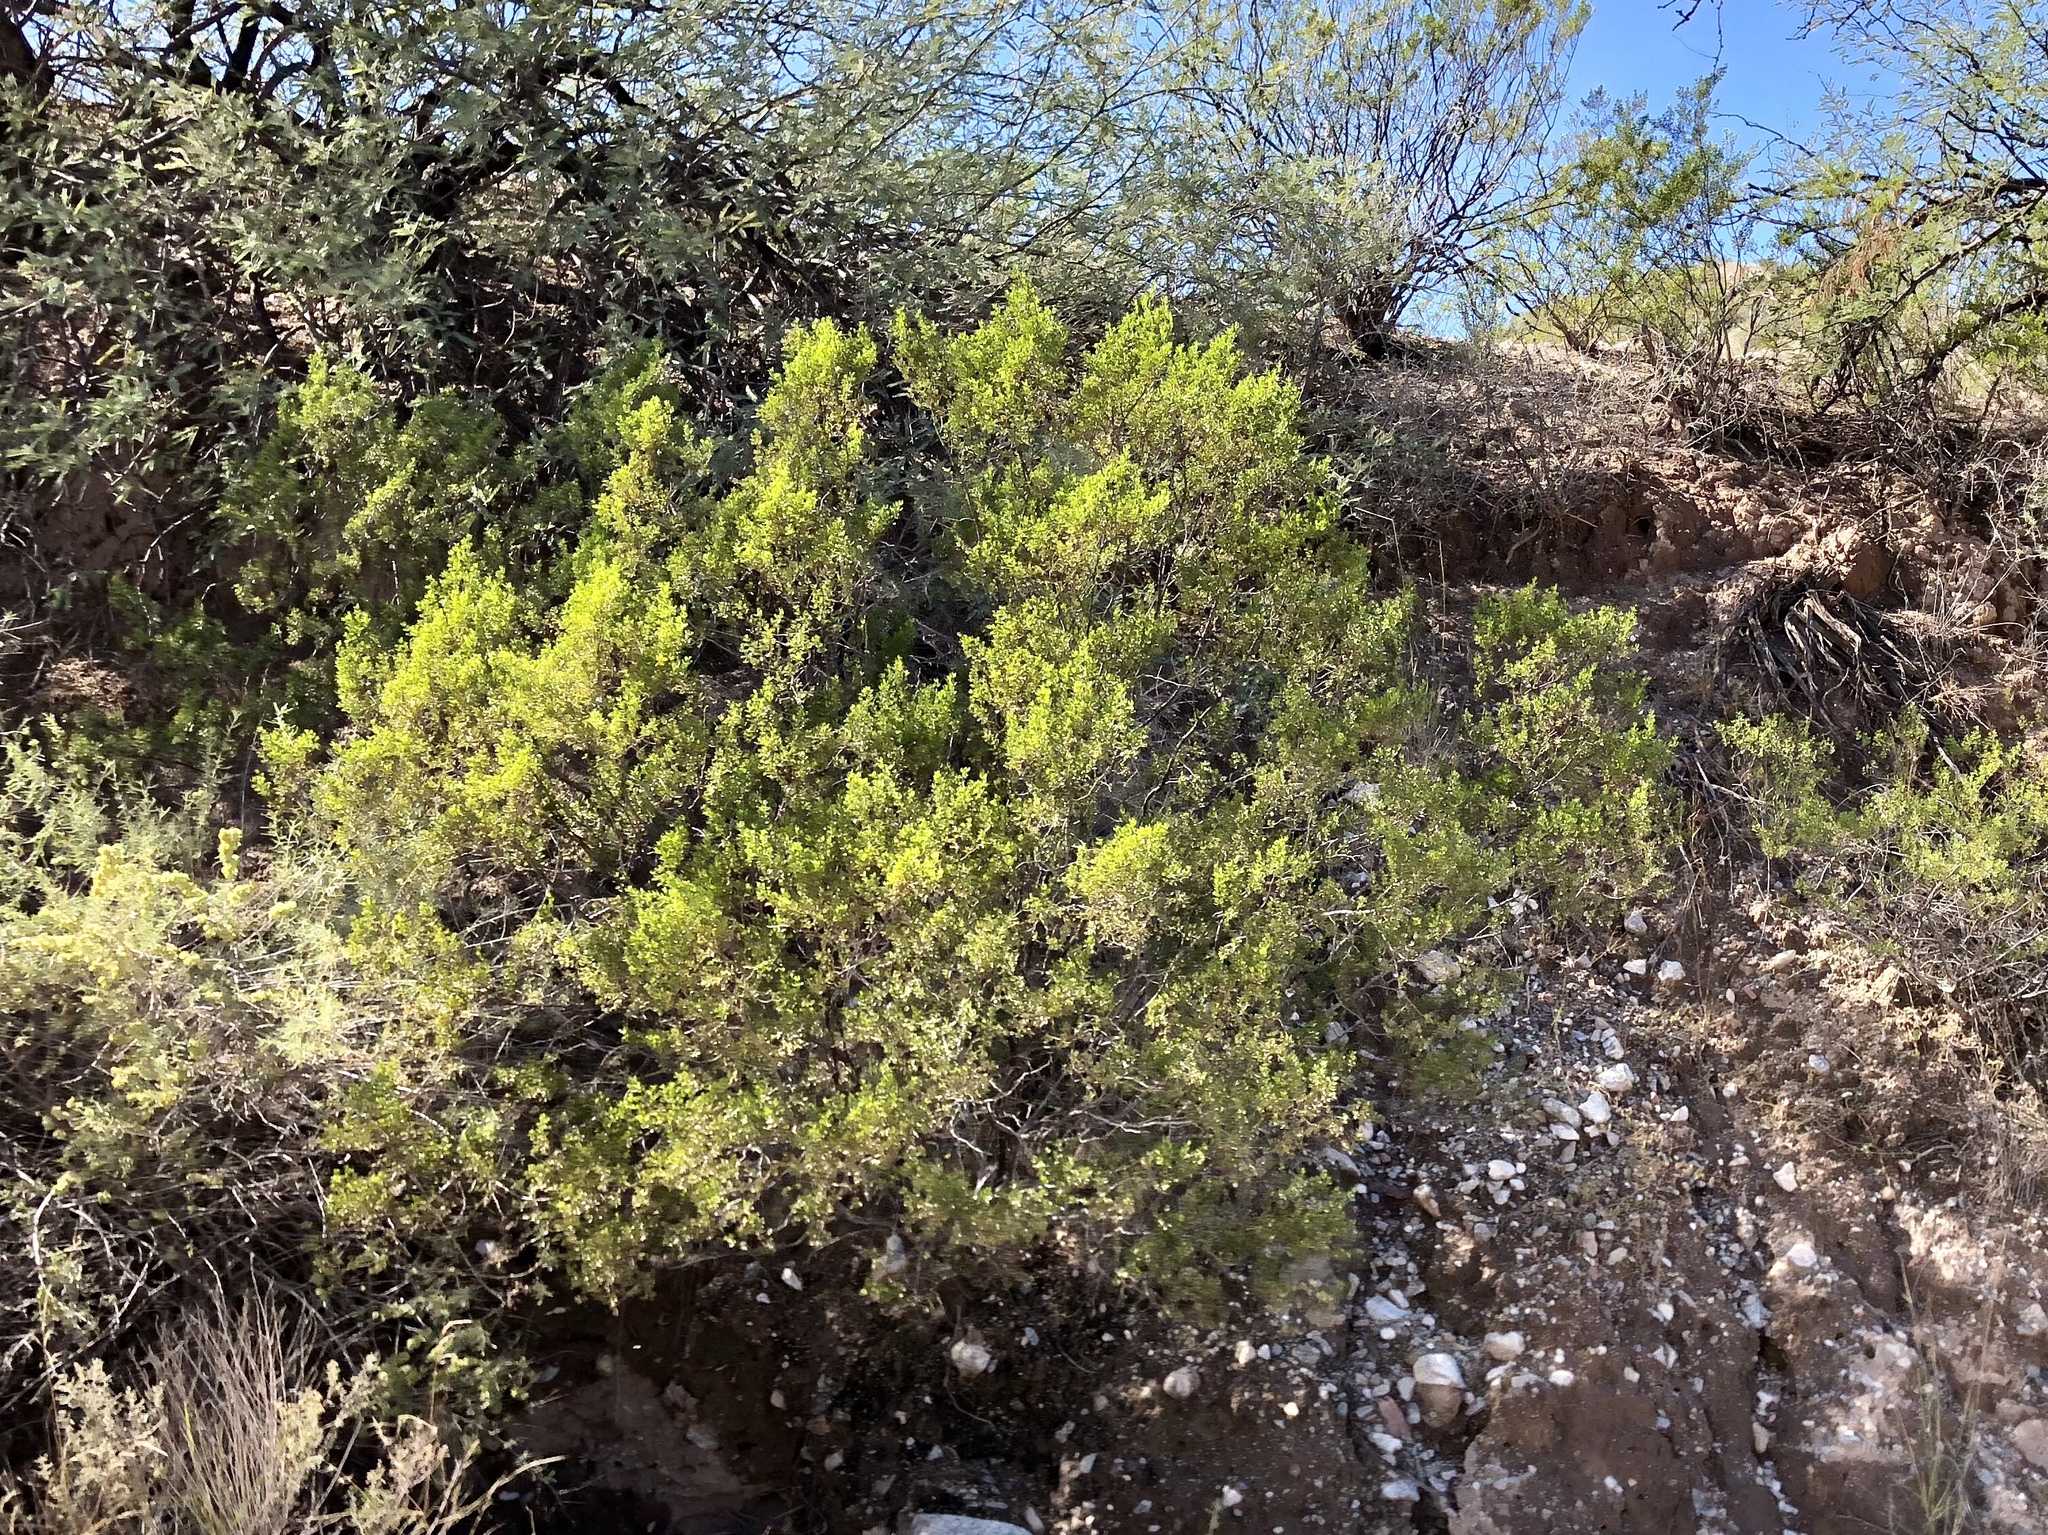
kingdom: Plantae
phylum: Tracheophyta
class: Magnoliopsida
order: Zygophyllales
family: Zygophyllaceae
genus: Larrea
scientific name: Larrea tridentata
